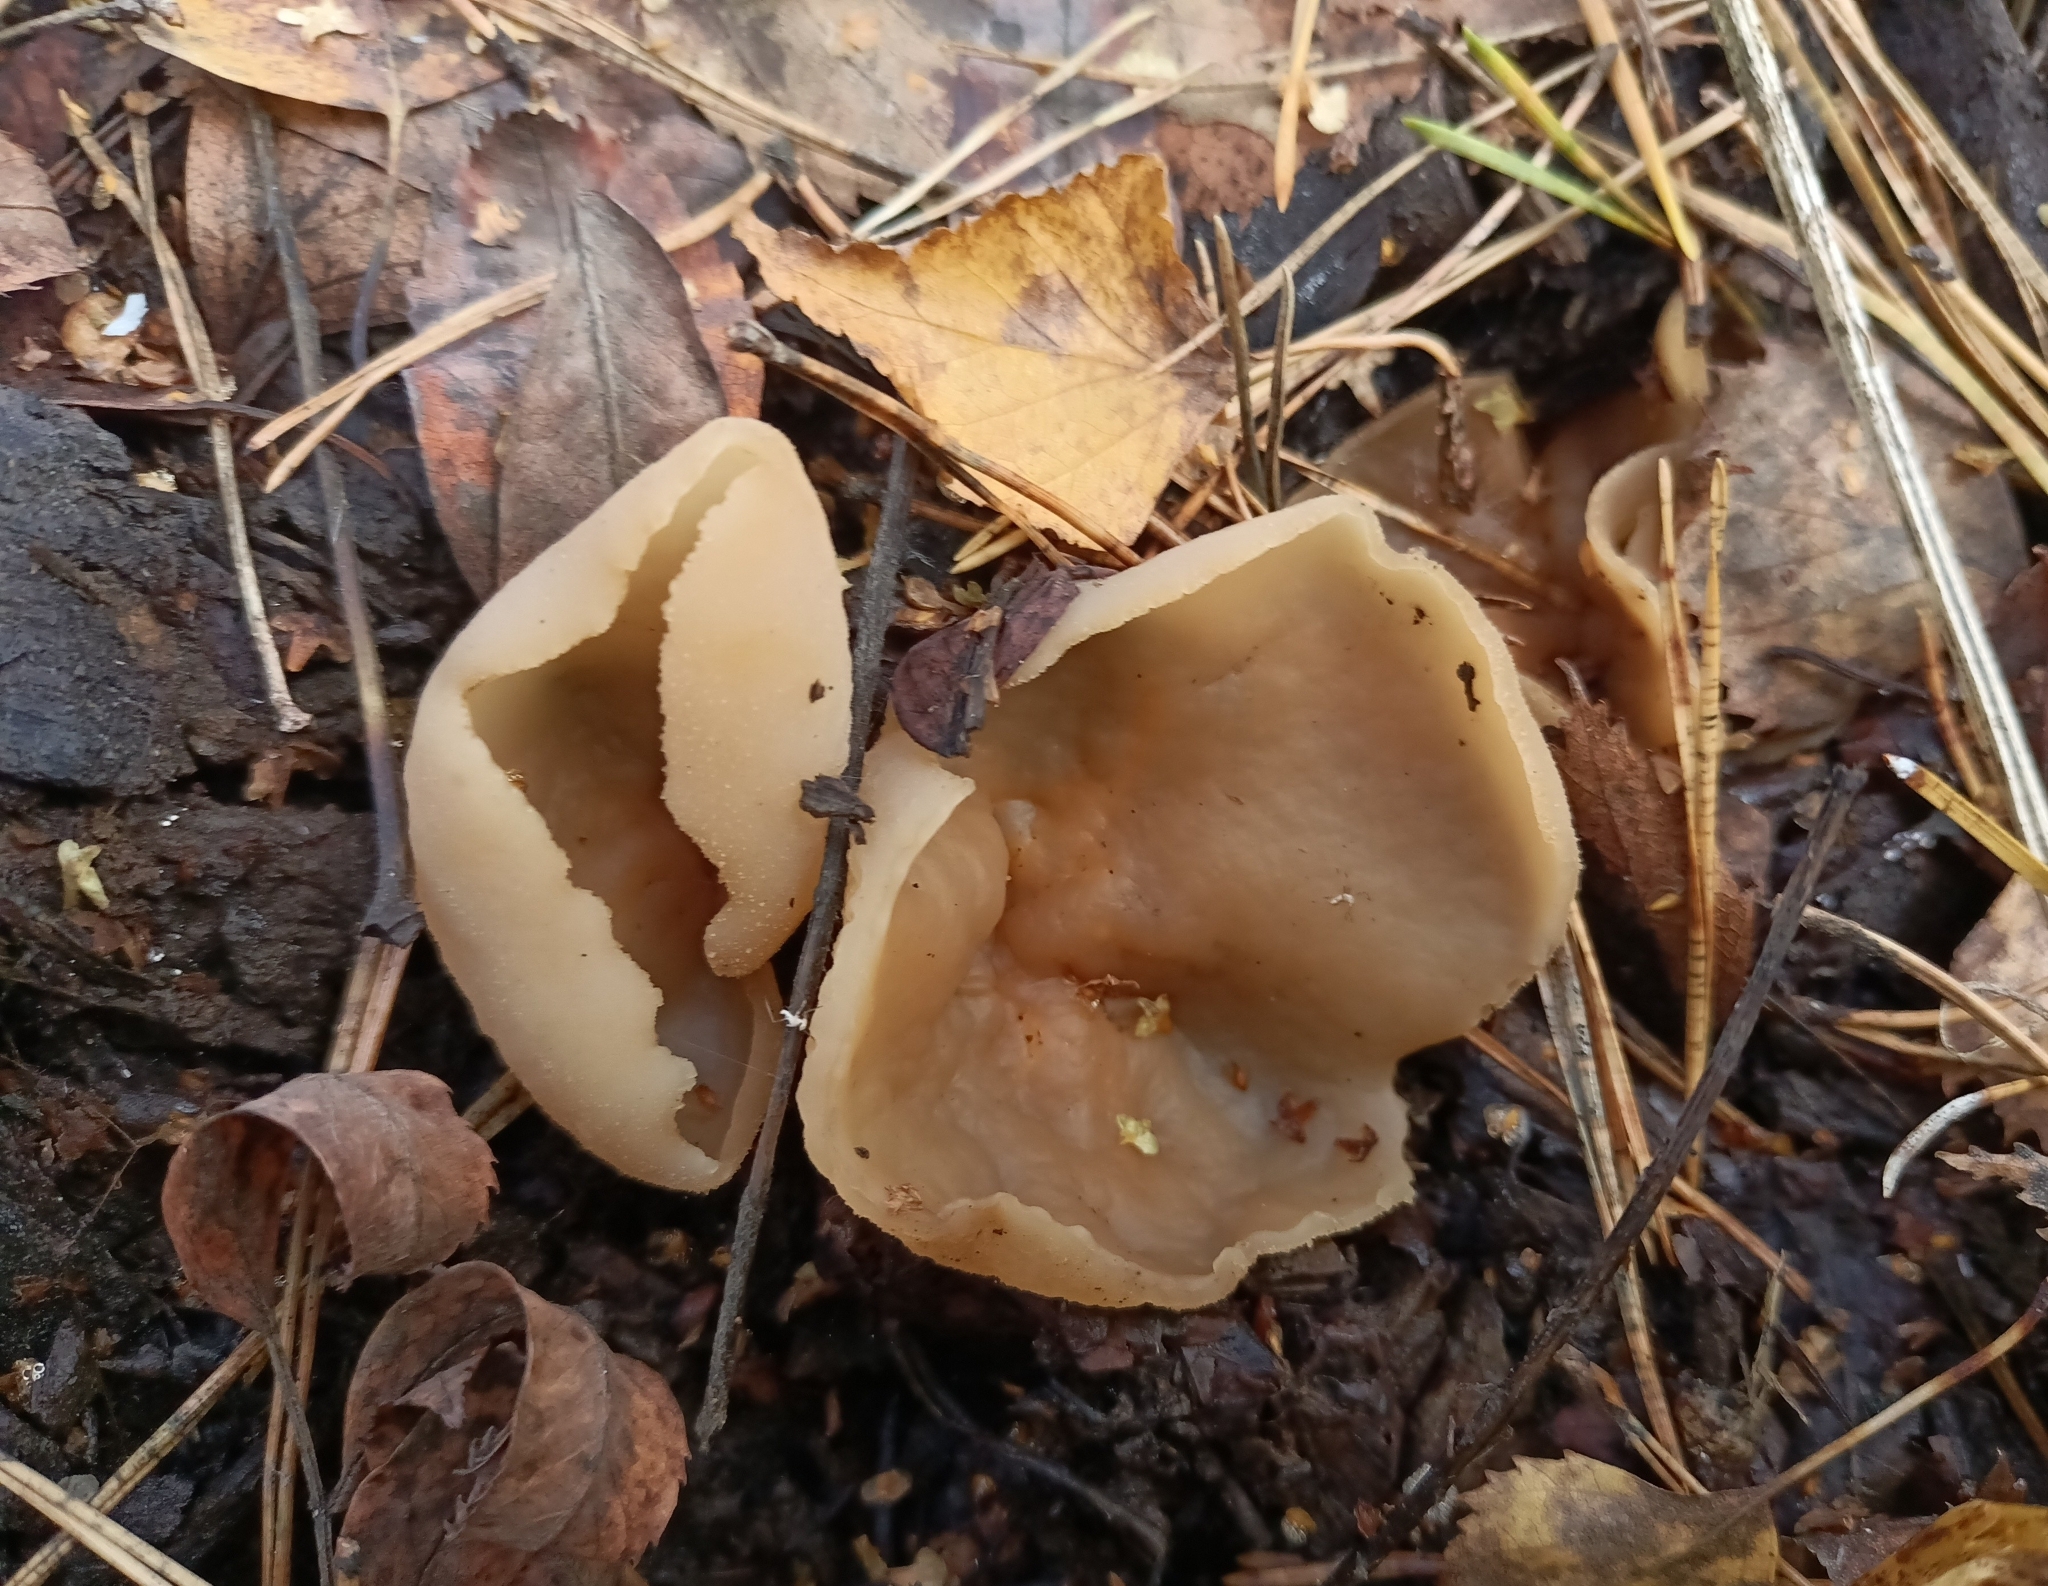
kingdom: Fungi
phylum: Ascomycota
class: Pezizomycetes
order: Pezizales
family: Pezizaceae
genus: Peziza
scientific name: Peziza varia
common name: Layered cup
